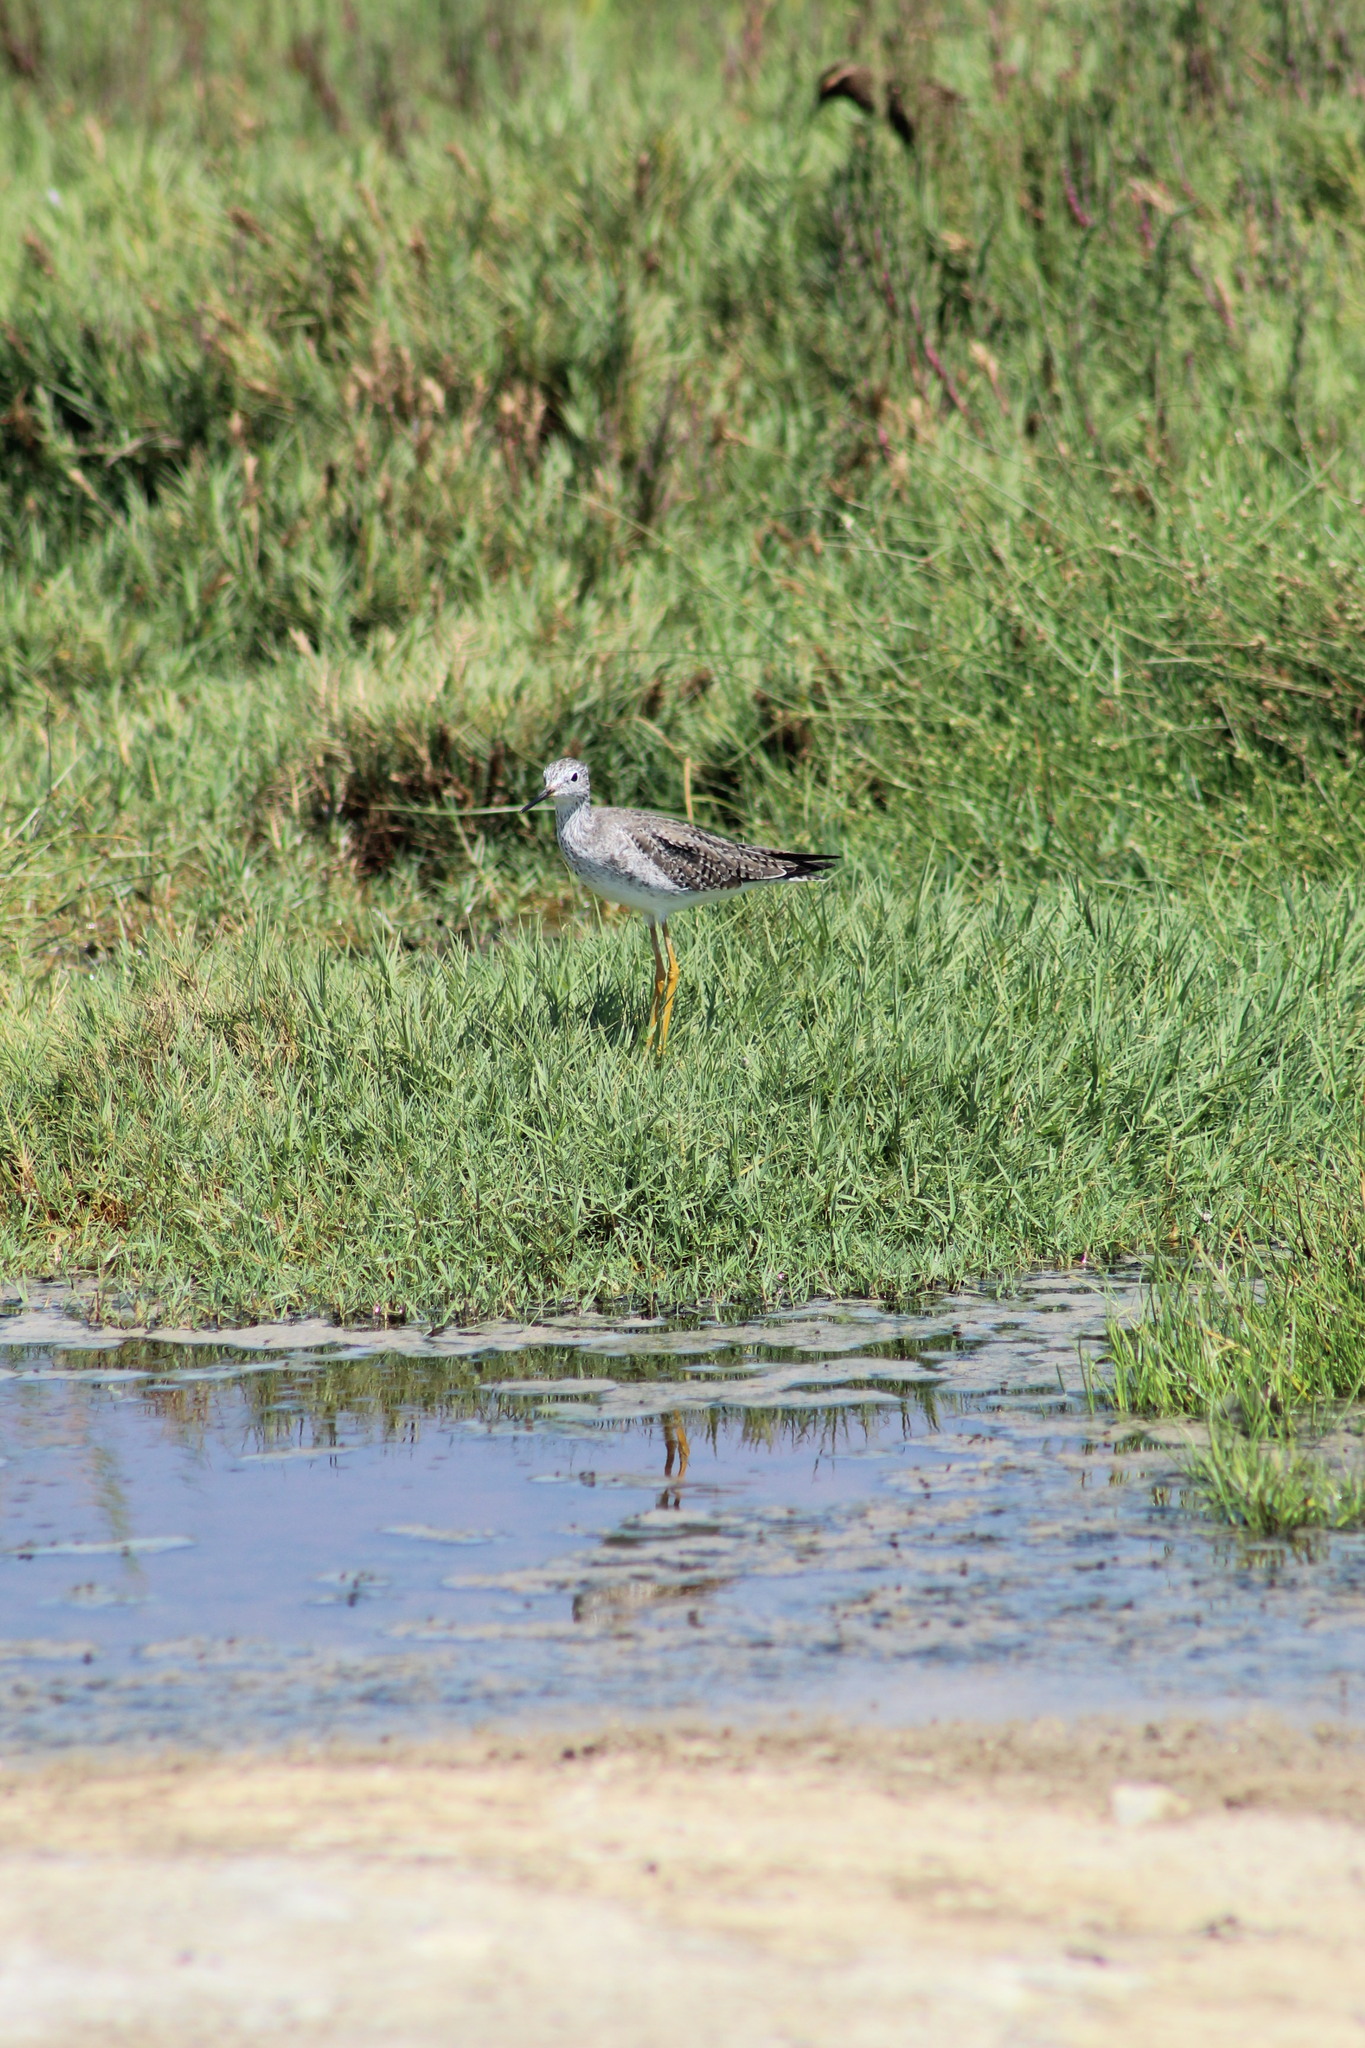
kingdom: Animalia
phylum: Chordata
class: Aves
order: Charadriiformes
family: Scolopacidae
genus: Tringa
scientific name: Tringa flavipes
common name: Lesser yellowlegs
